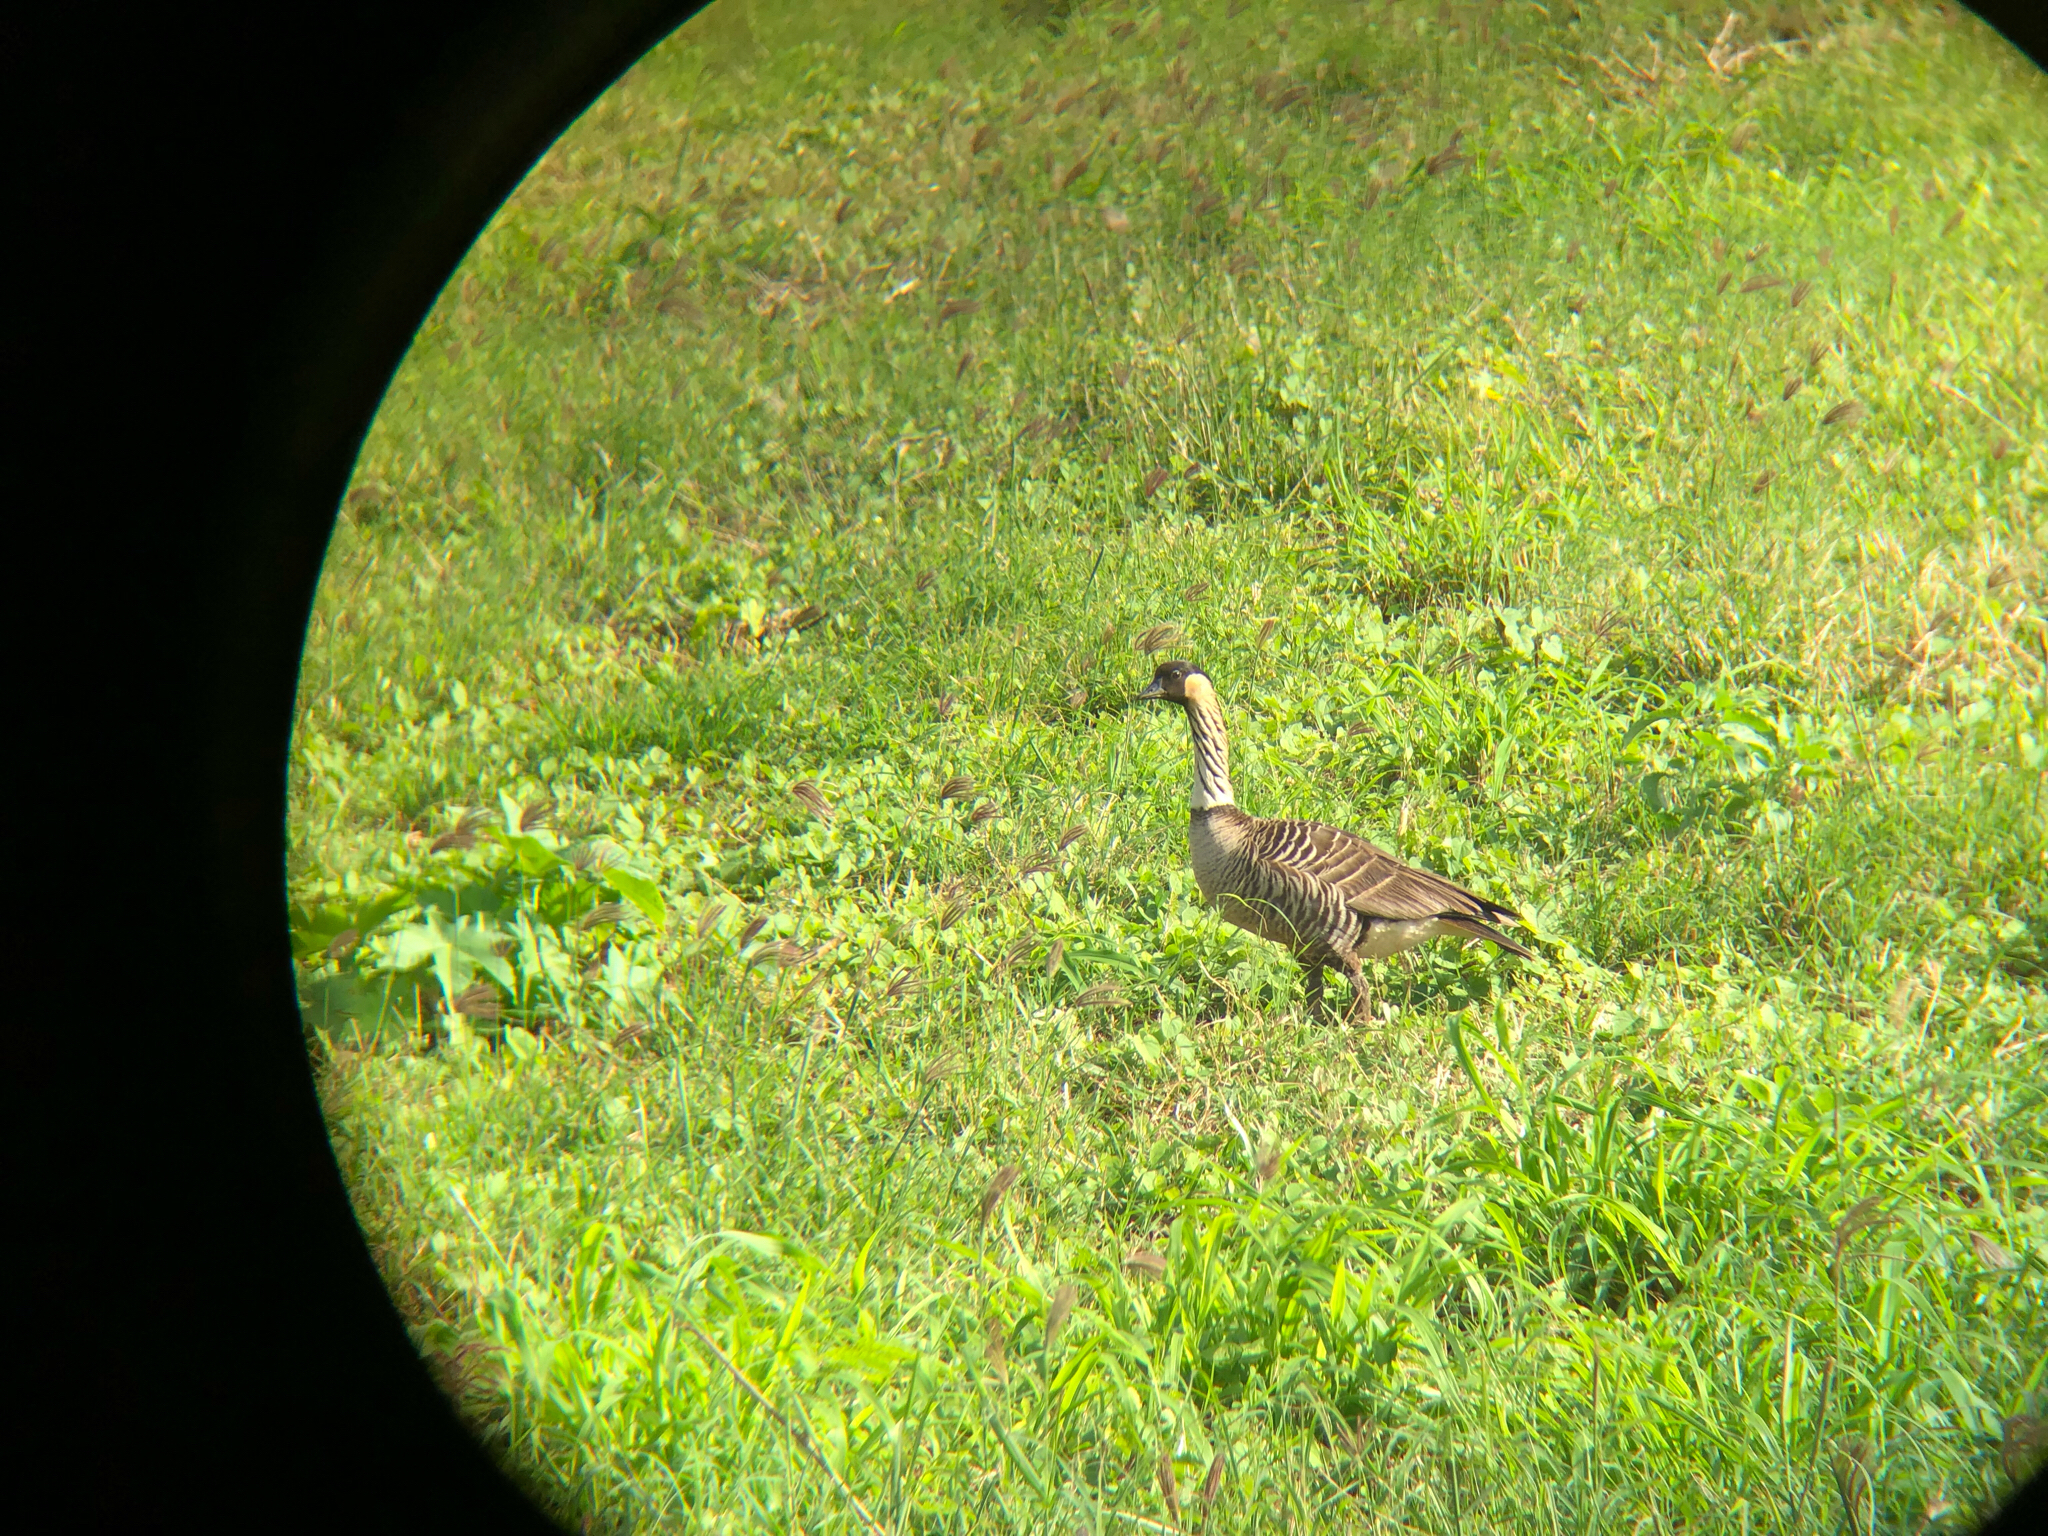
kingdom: Animalia
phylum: Chordata
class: Aves
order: Anseriformes
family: Anatidae
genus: Branta
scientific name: Branta sandvicensis
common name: Nene
